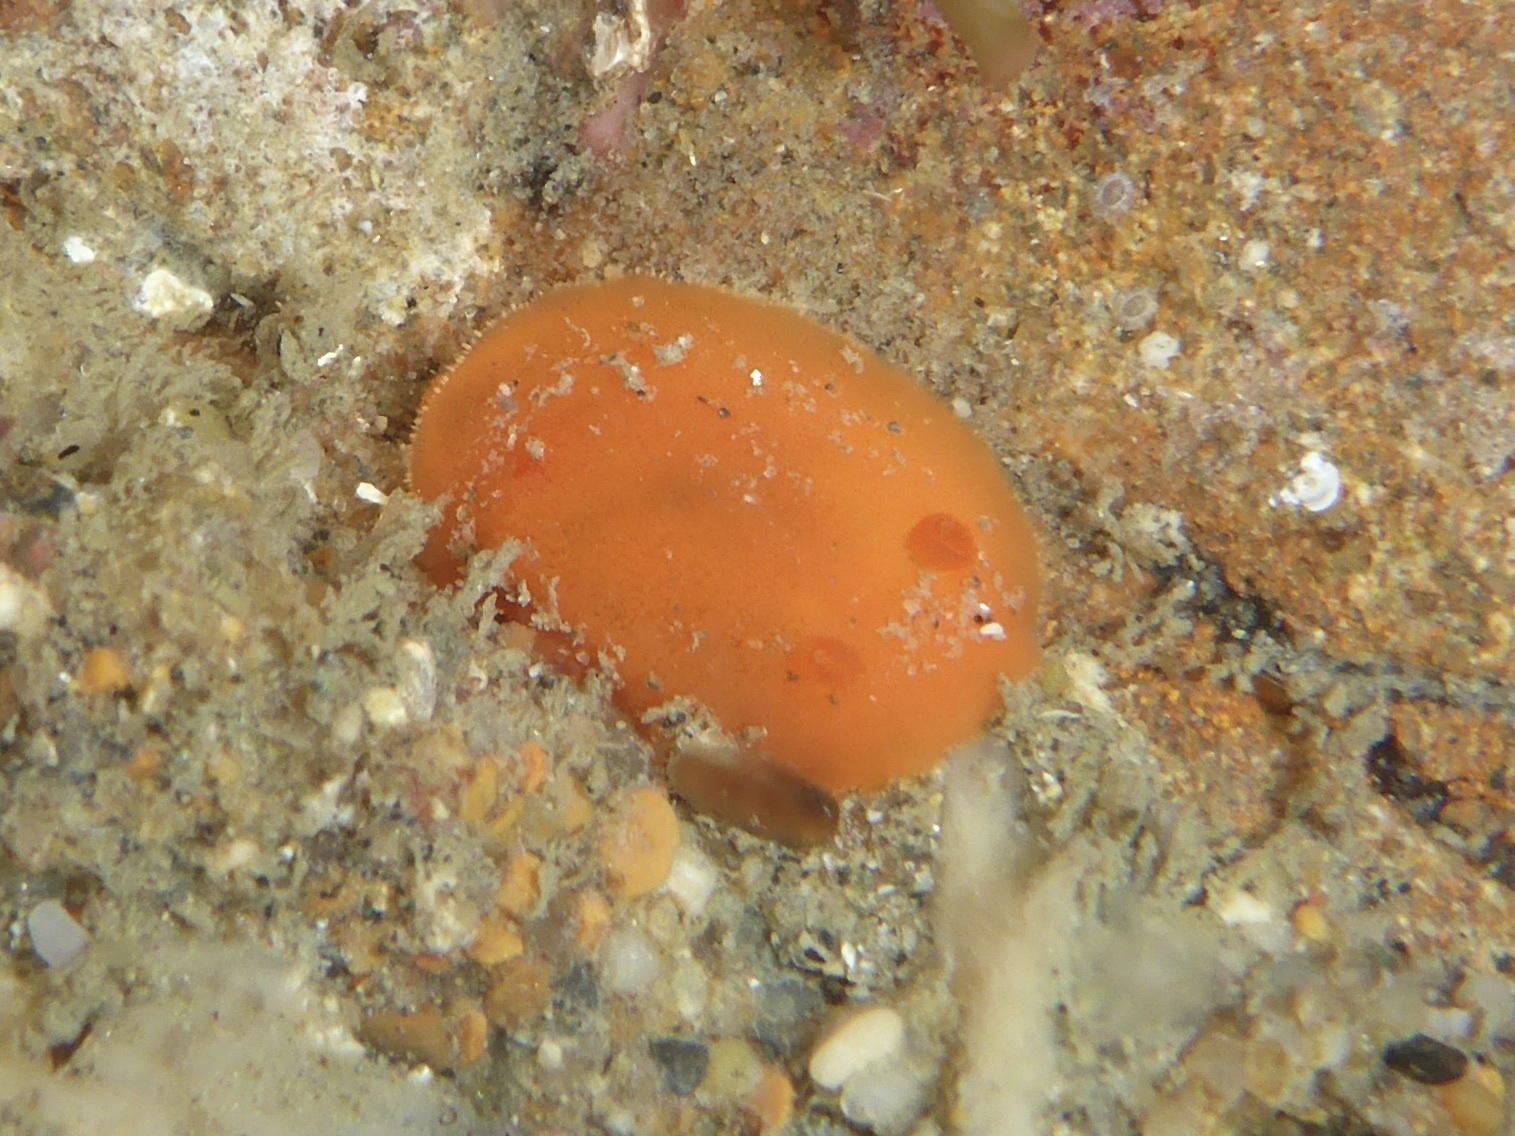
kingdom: Animalia
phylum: Mollusca
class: Gastropoda
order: Nudibranchia
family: Discodorididae
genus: Rostanga
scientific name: Rostanga pulchra
